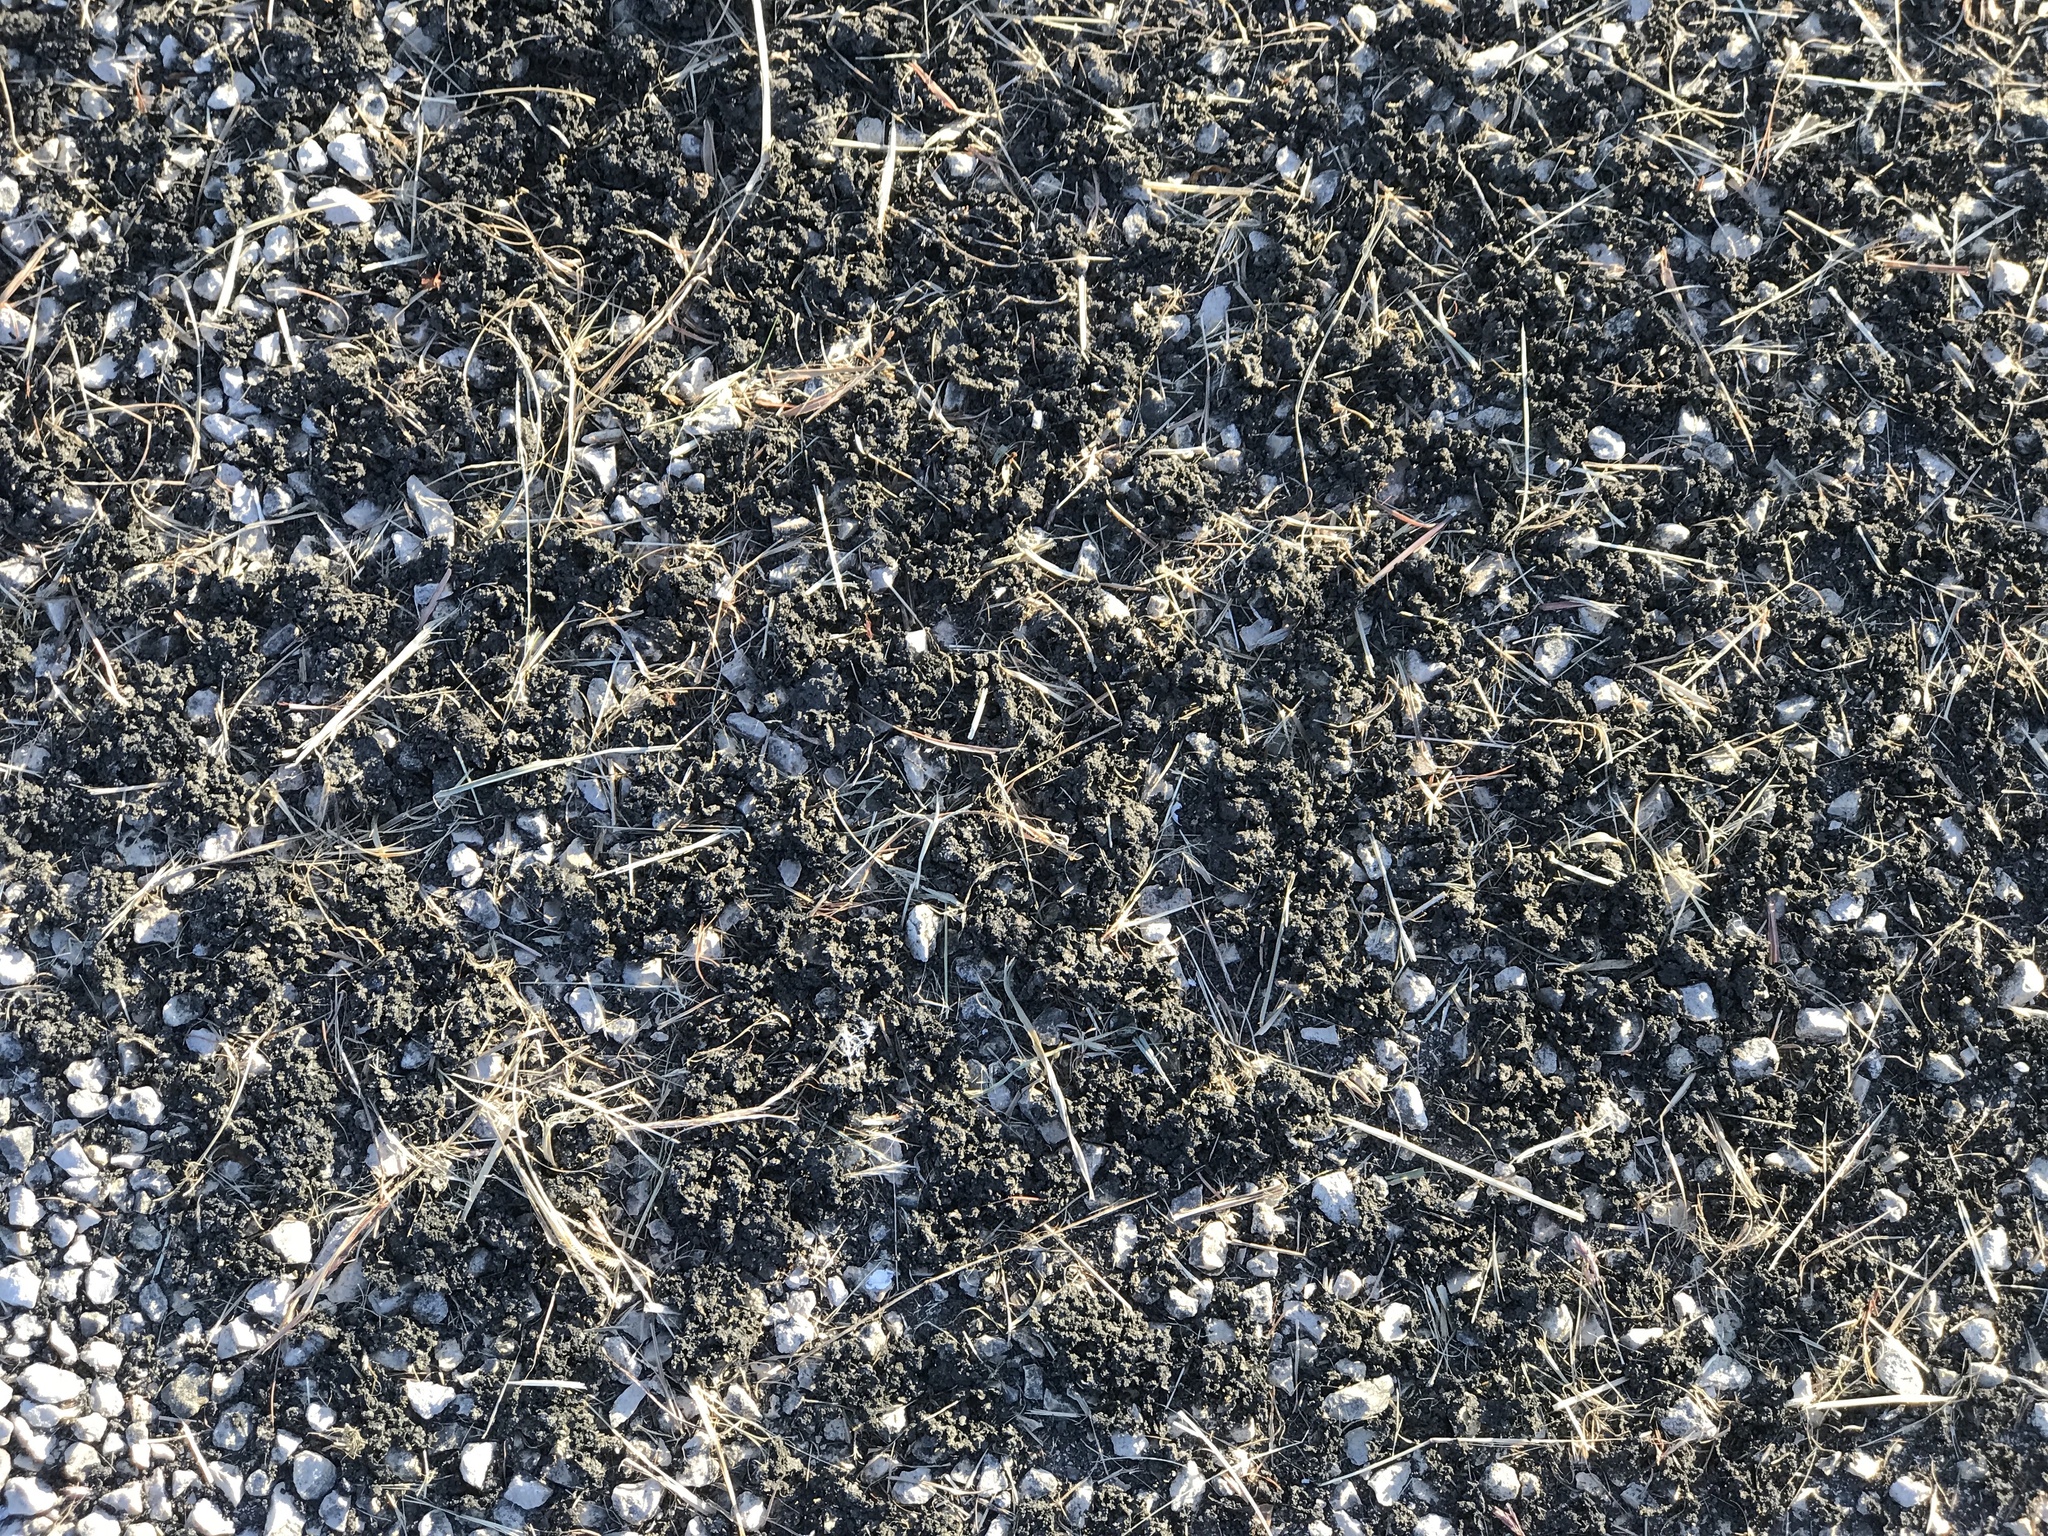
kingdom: Bacteria
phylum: Cyanobacteria
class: Cyanobacteriia
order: Cyanobacteriales
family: Nostocaceae
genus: Nostoc
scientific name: Nostoc commune
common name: Star jelly
